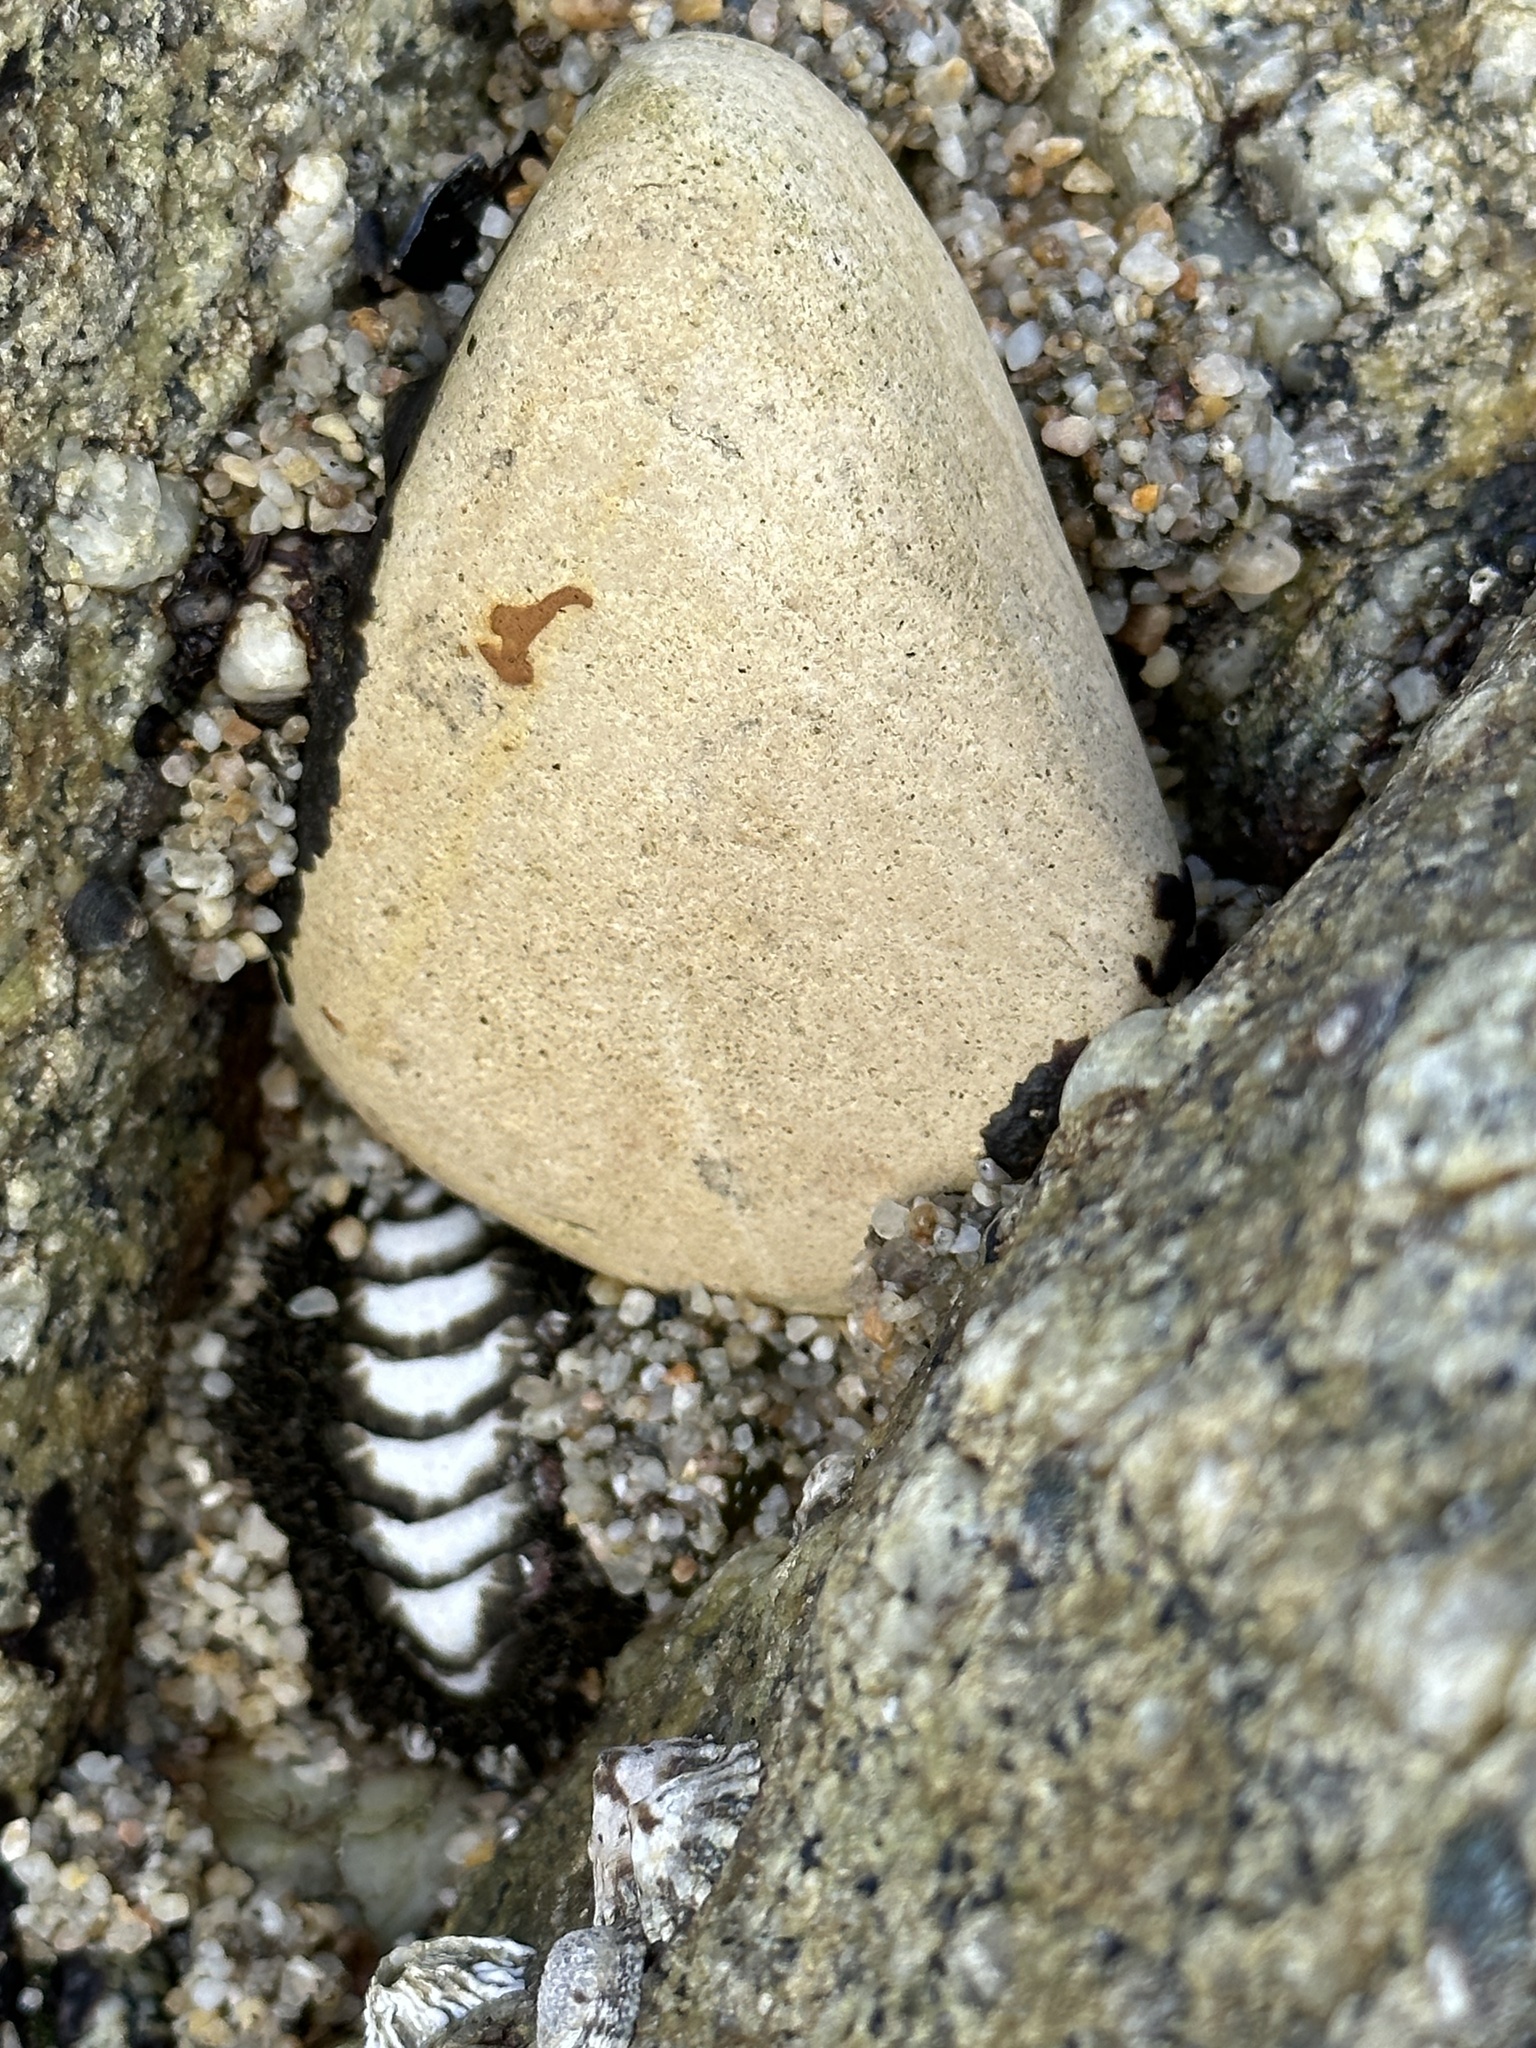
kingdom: Animalia
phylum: Mollusca
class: Polyplacophora
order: Chitonida
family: Mopaliidae
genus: Mopalia
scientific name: Mopalia muscosa
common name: Mossy chiton
